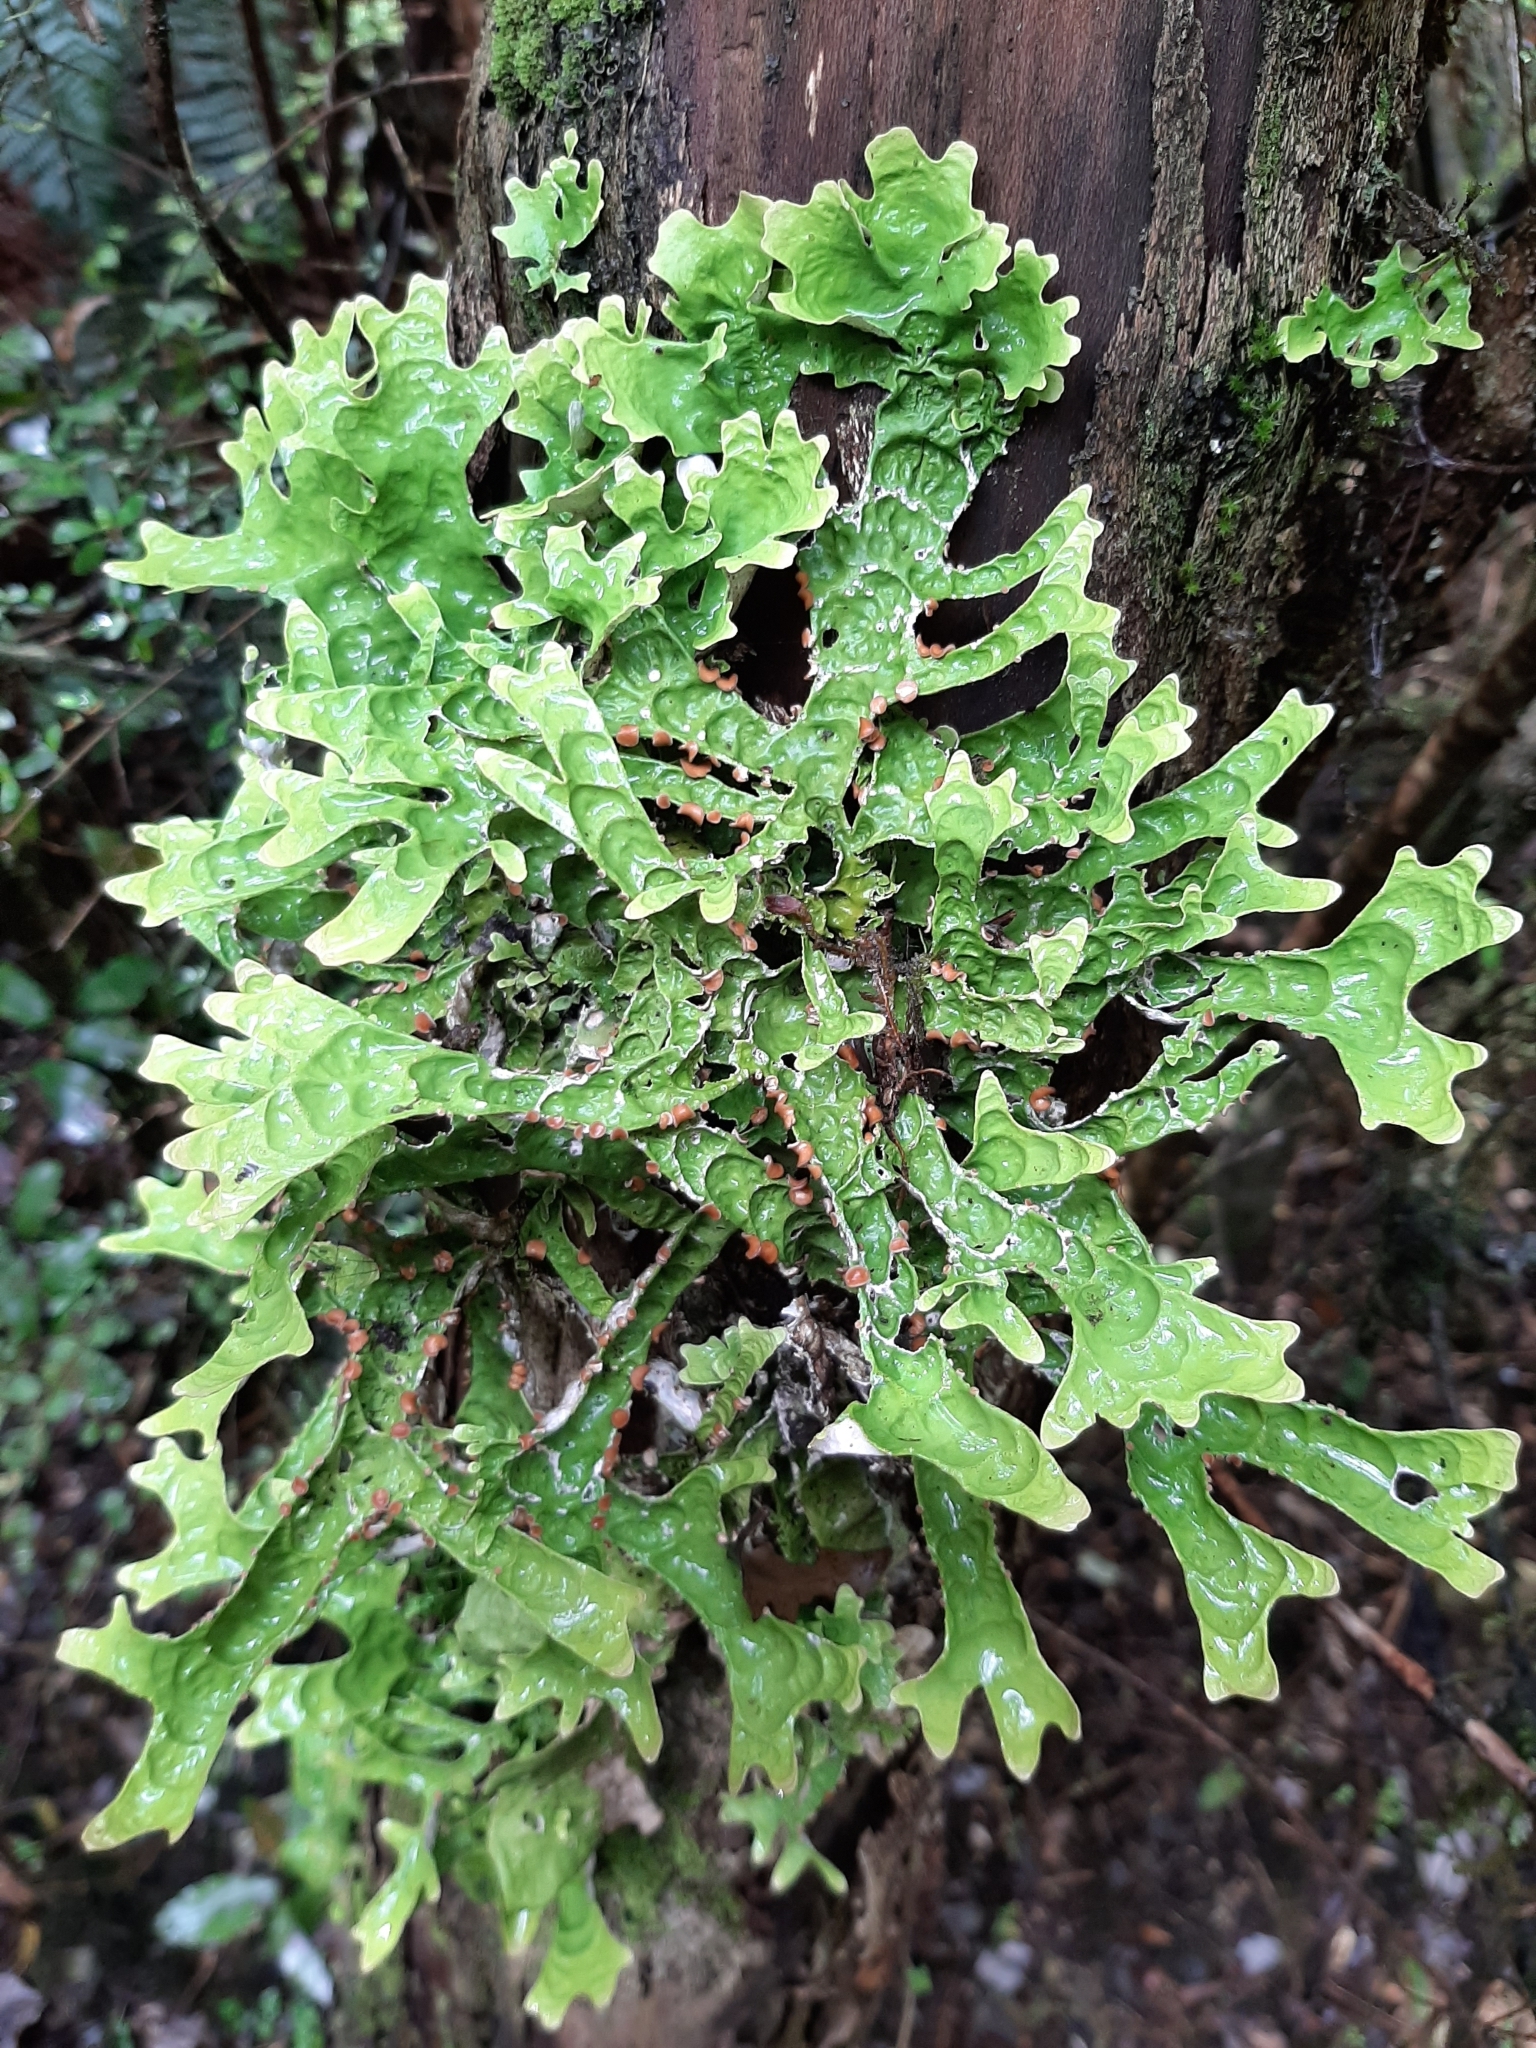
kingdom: Fungi
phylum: Ascomycota
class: Lecanoromycetes
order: Peltigerales
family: Lobariaceae
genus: Pseudocyphellaria
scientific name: Pseudocyphellaria rufovirescens
